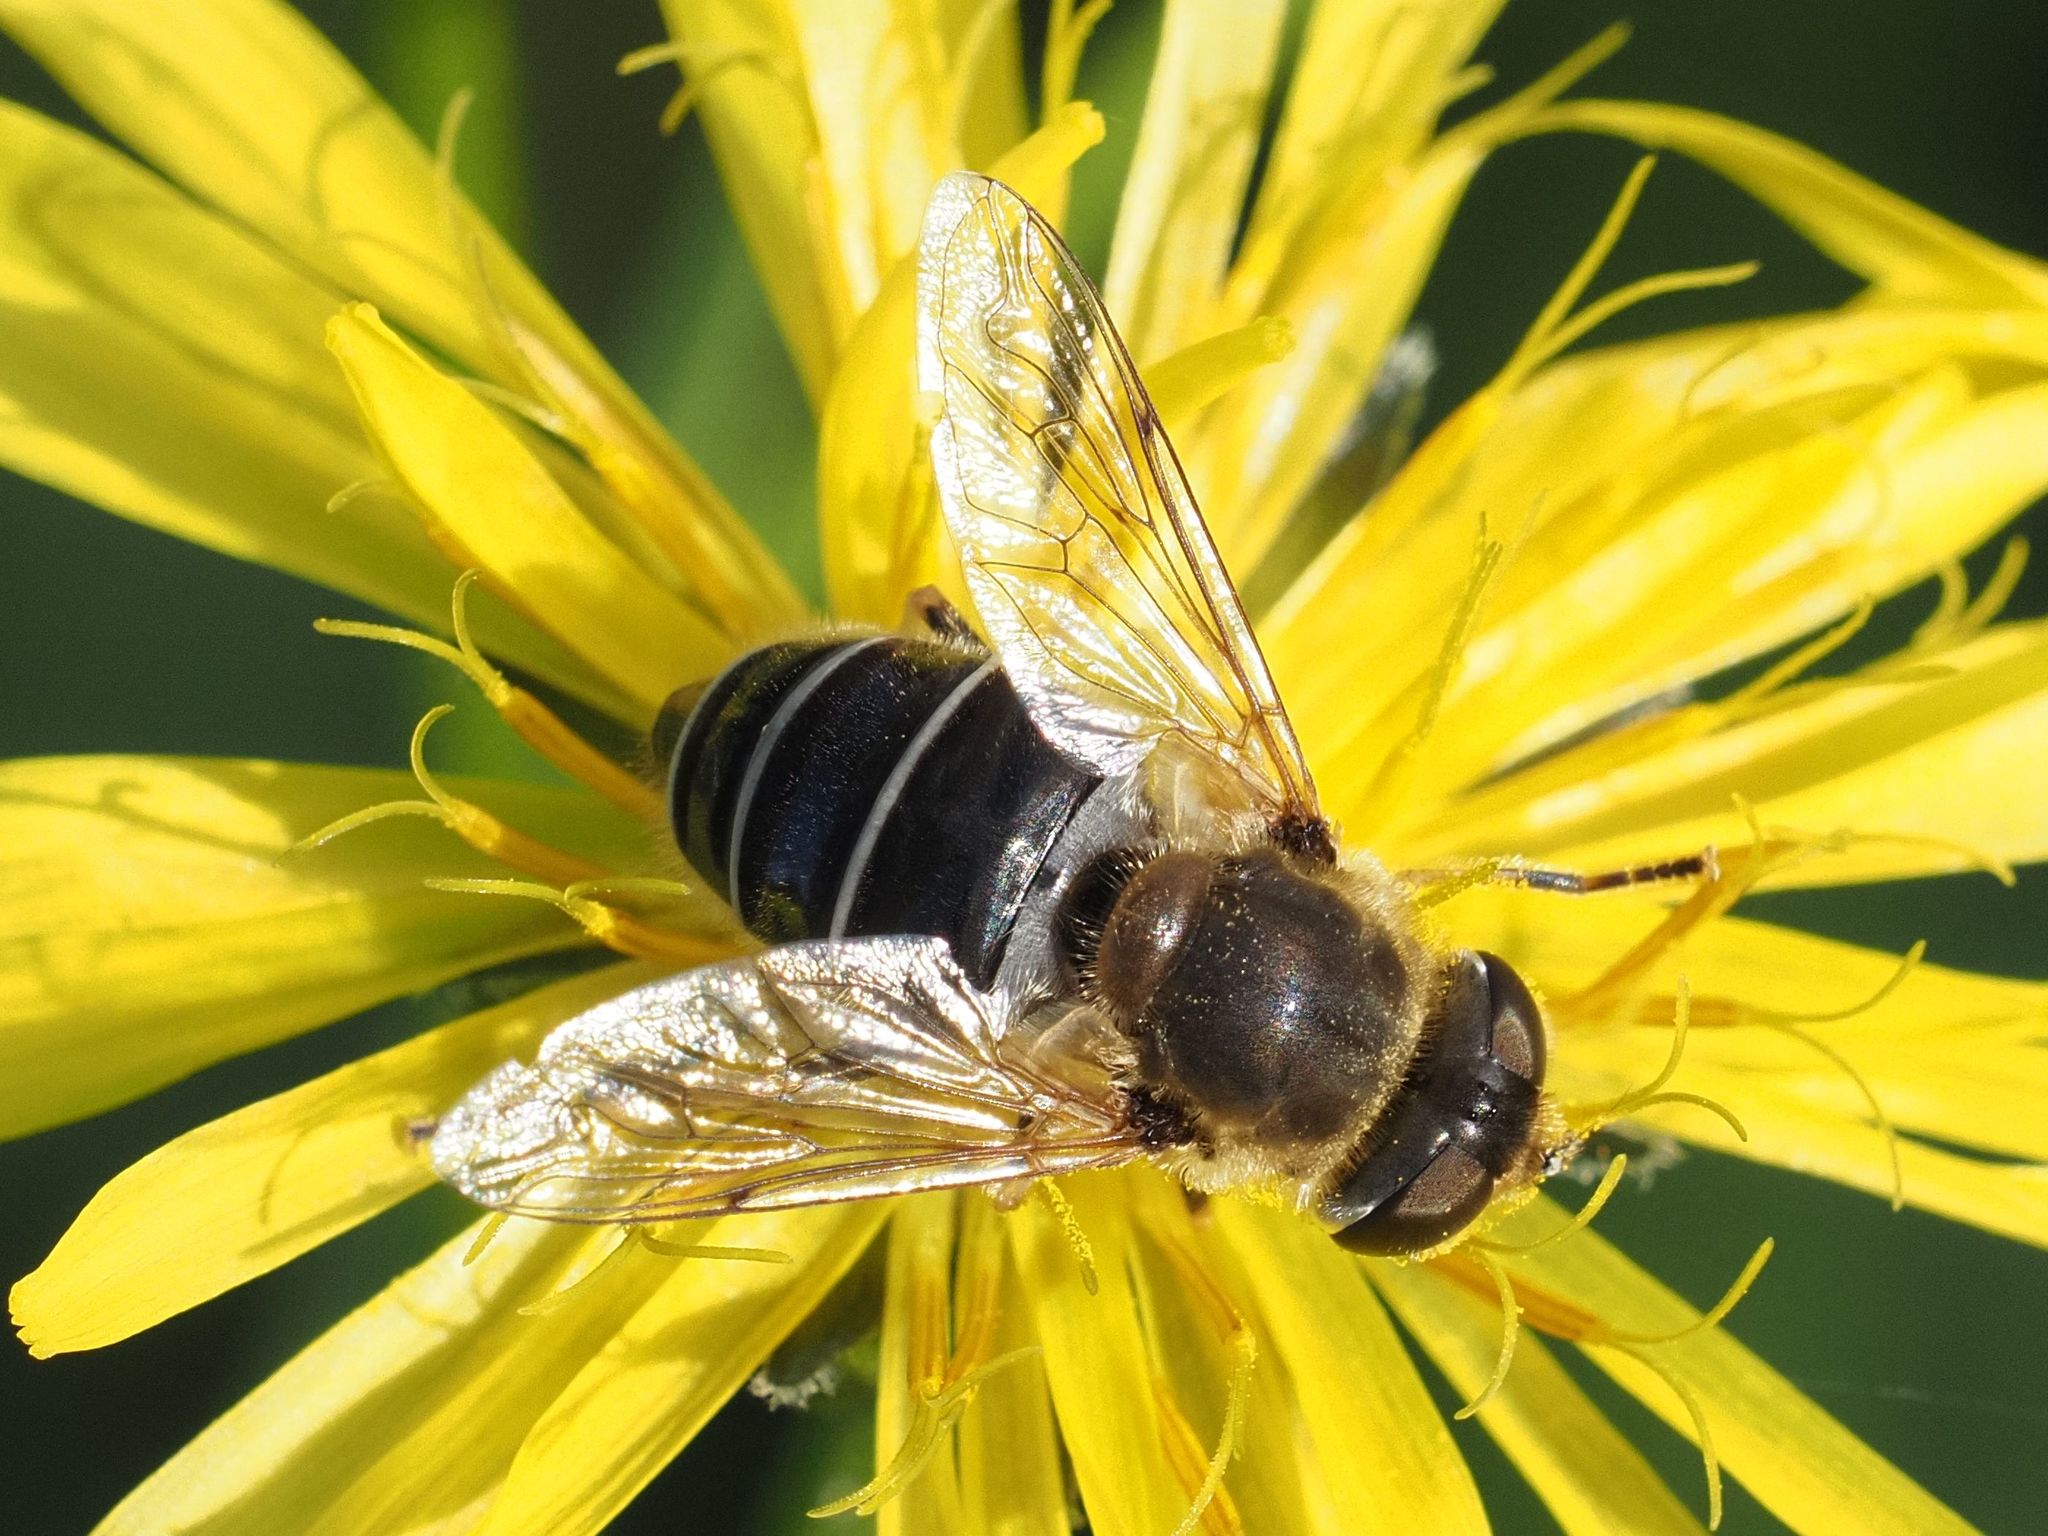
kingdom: Animalia
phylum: Arthropoda
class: Insecta
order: Diptera
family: Syrphidae
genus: Eristalis
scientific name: Eristalis nemorum
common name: Orange-spined drone fly
